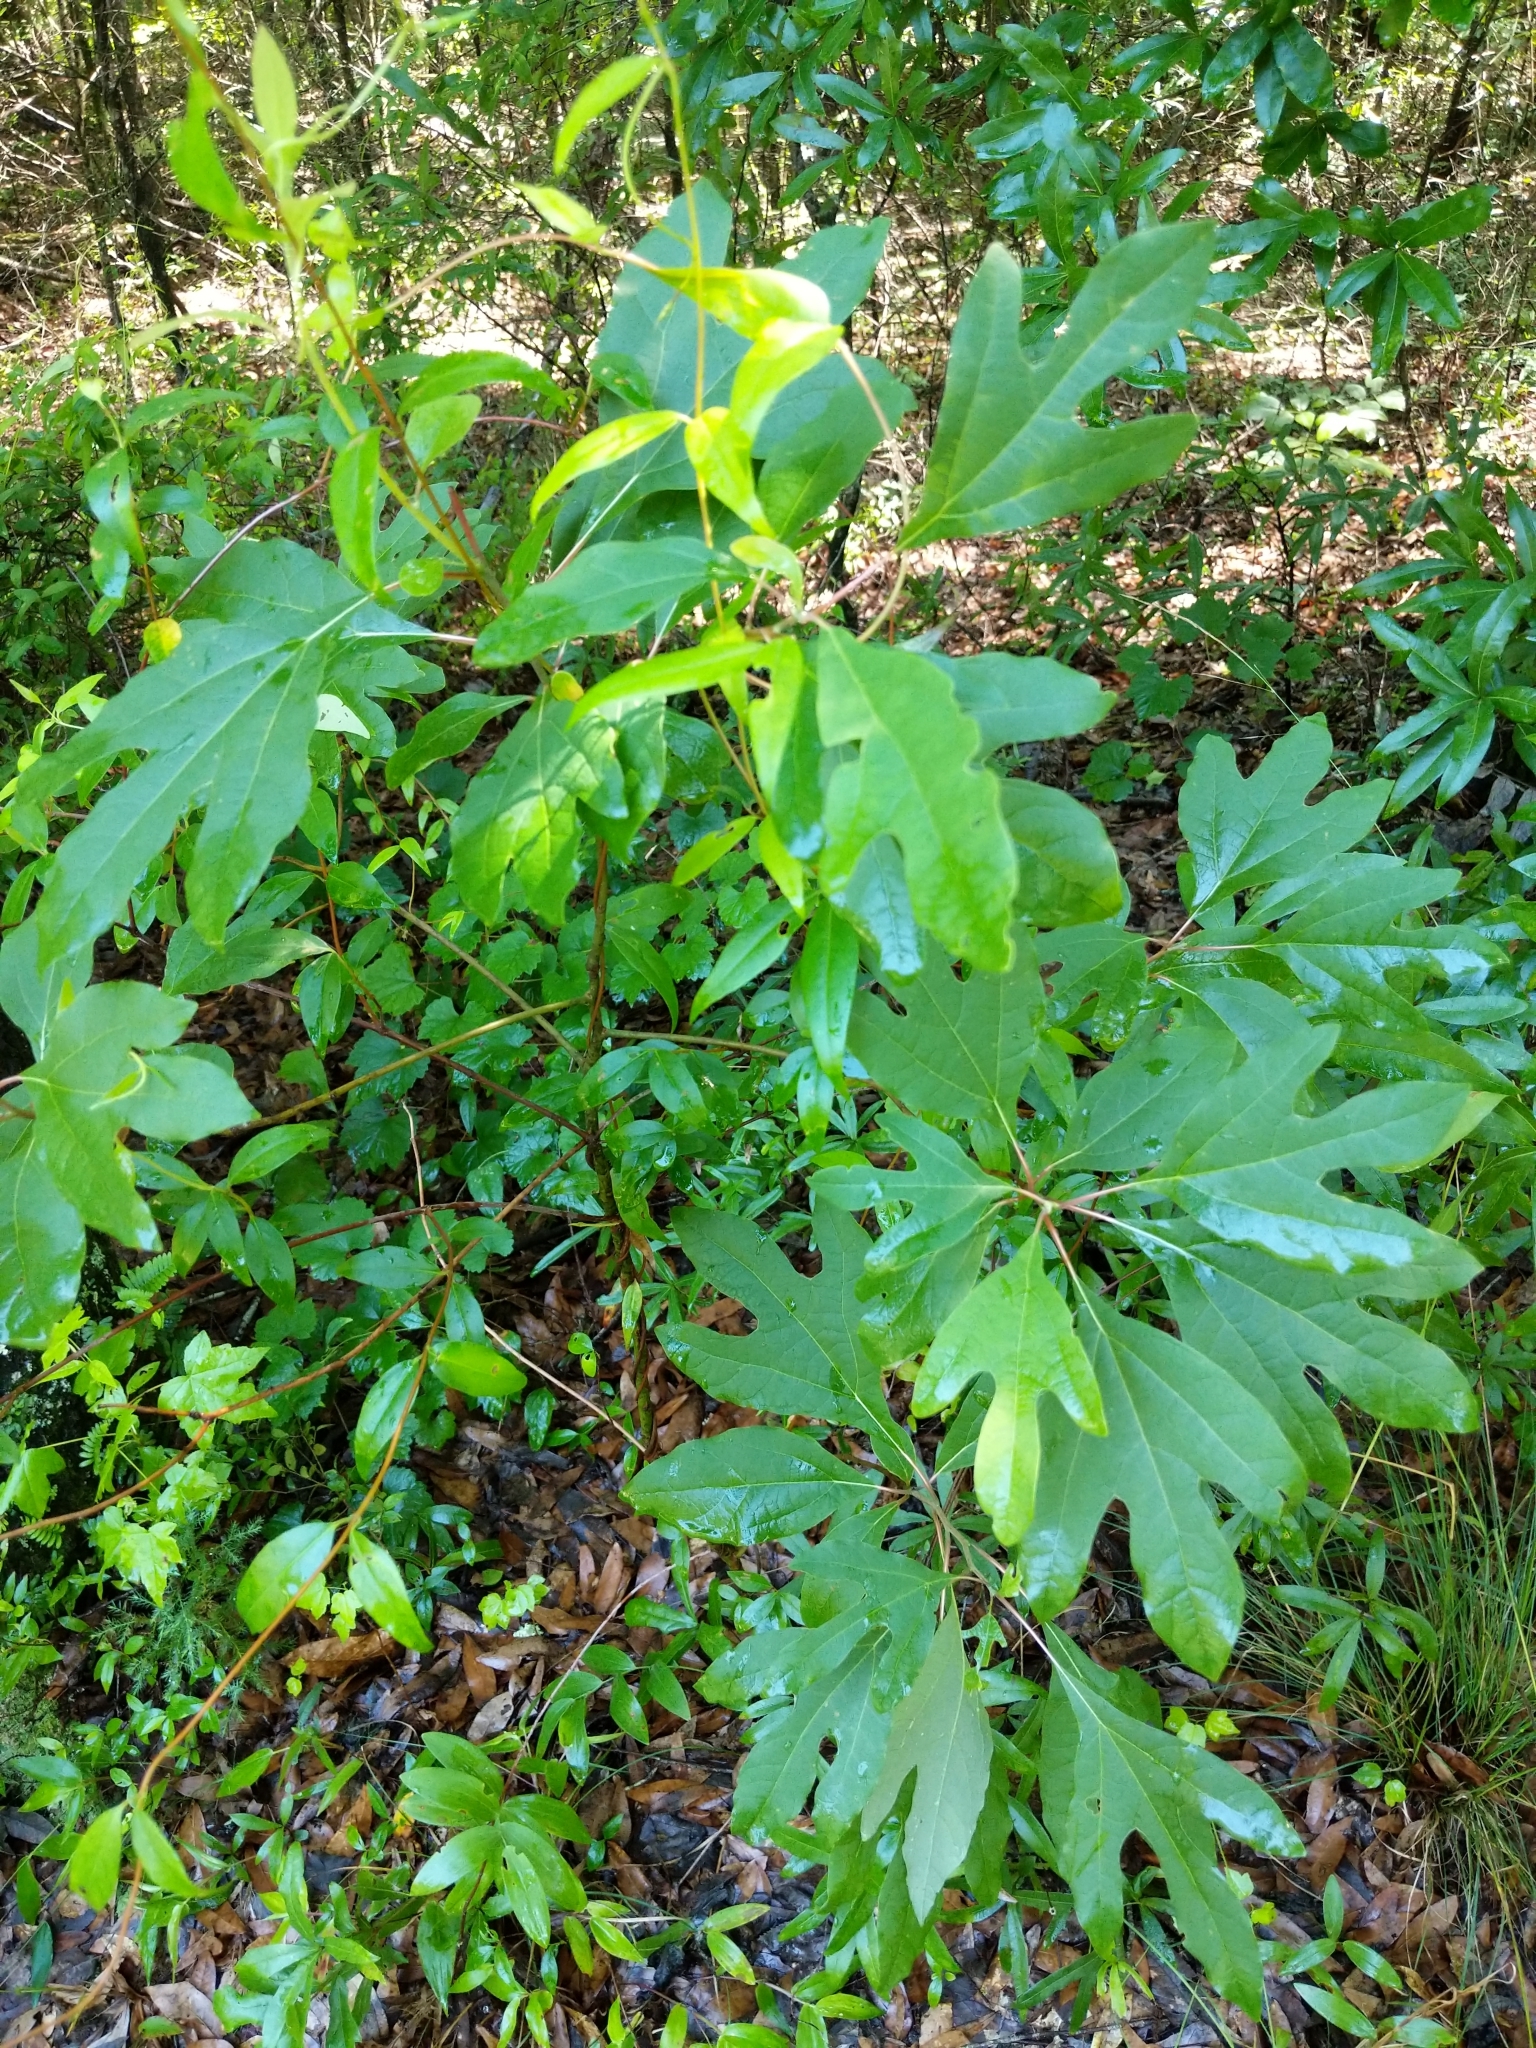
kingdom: Plantae
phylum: Tracheophyta
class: Magnoliopsida
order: Laurales
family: Lauraceae
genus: Sassafras
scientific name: Sassafras albidum
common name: Sassafras
